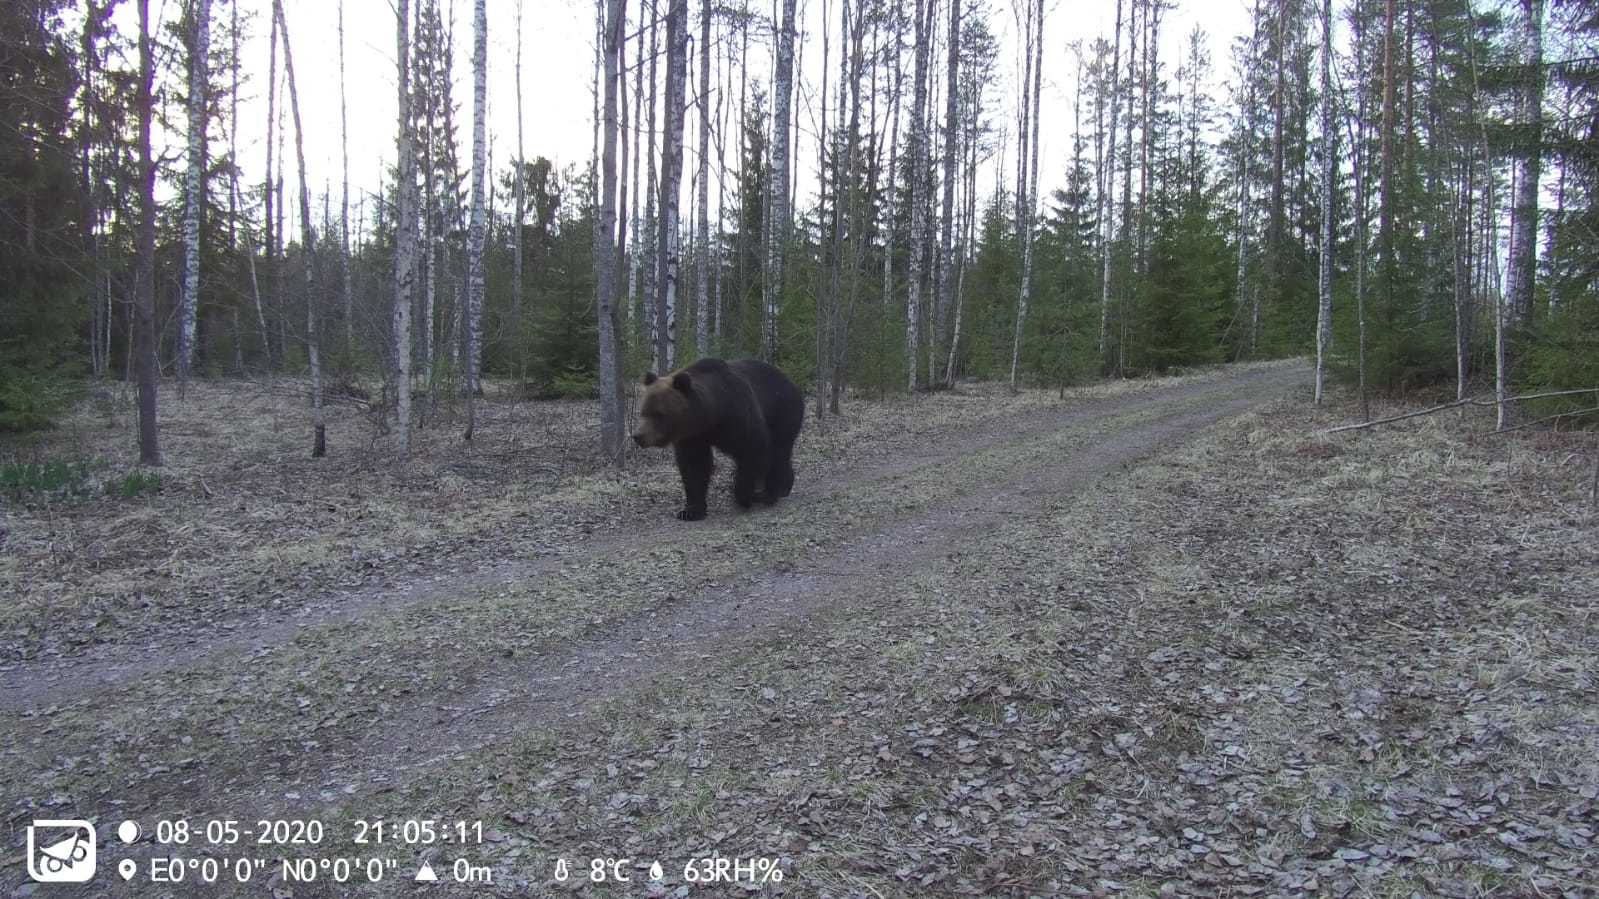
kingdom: Animalia
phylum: Chordata
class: Mammalia
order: Carnivora
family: Ursidae
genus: Ursus
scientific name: Ursus arctos
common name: Brown bear
